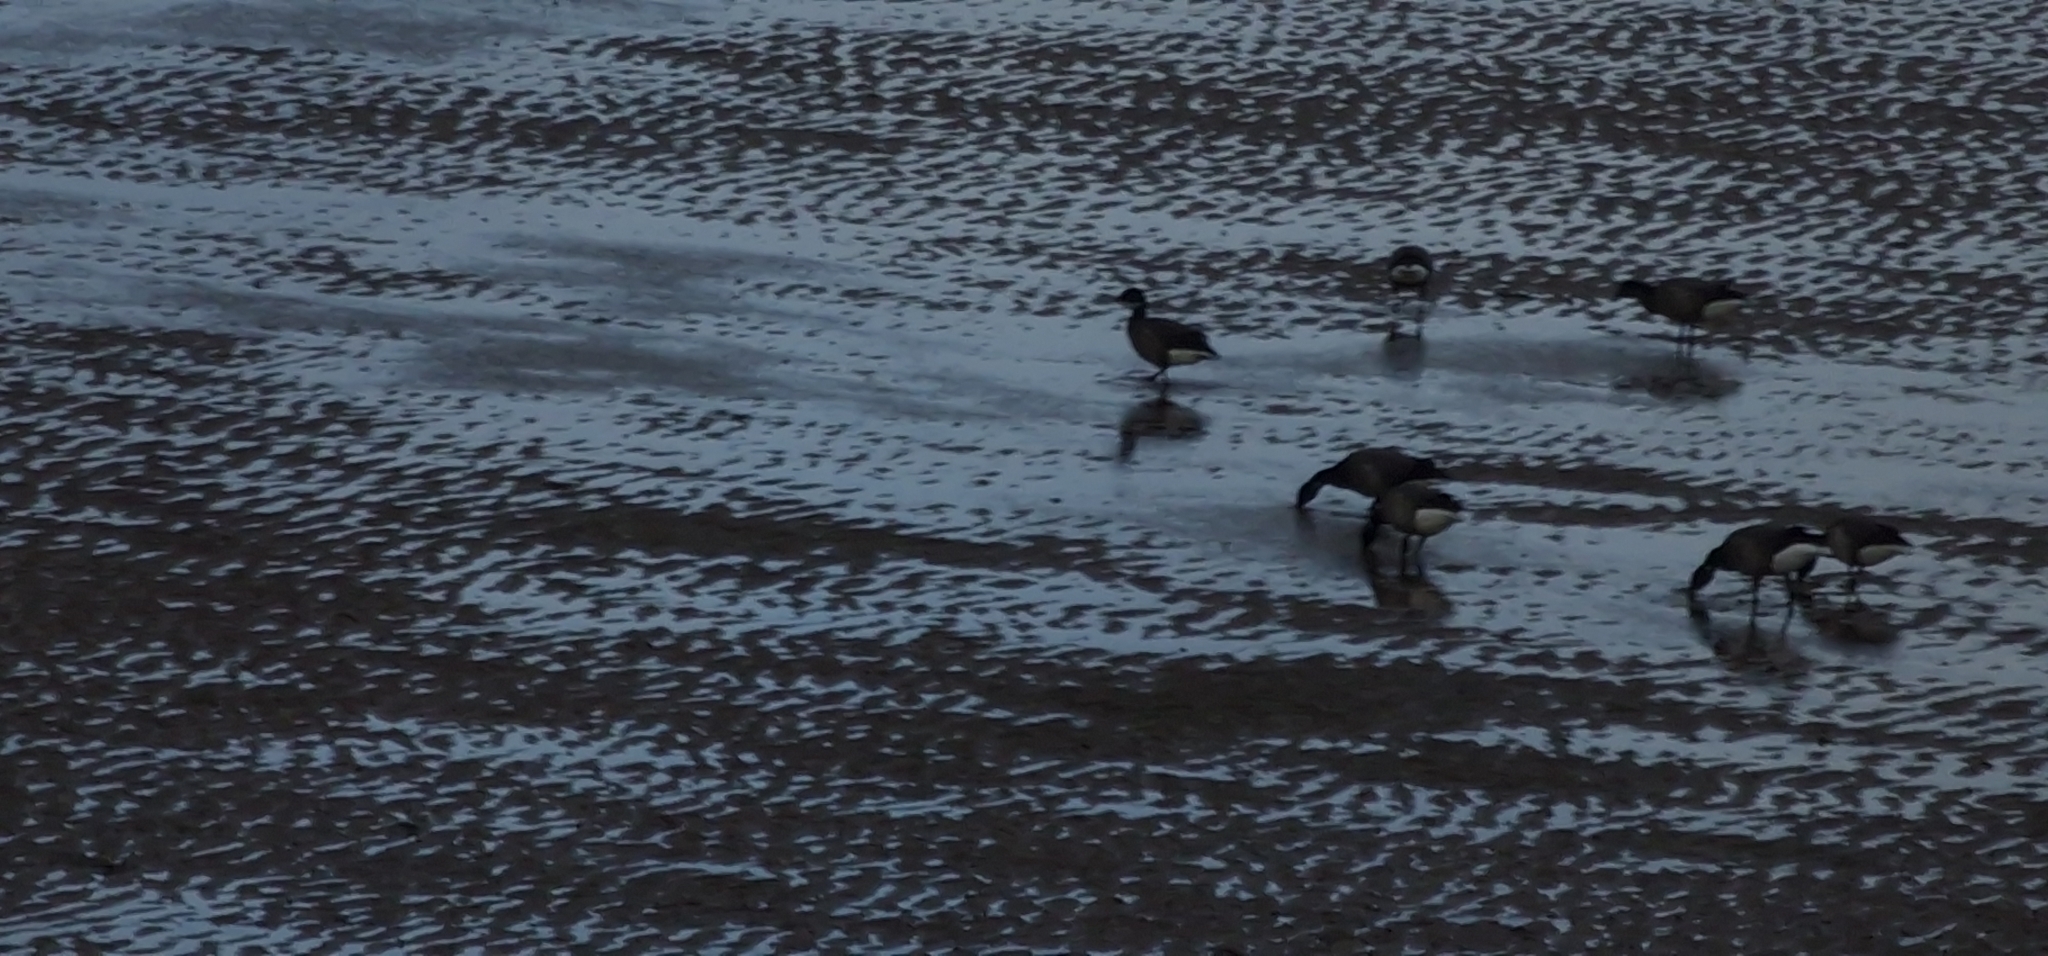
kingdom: Animalia
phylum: Chordata
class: Aves
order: Anseriformes
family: Anatidae
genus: Branta
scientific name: Branta bernicla
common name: Brant goose
